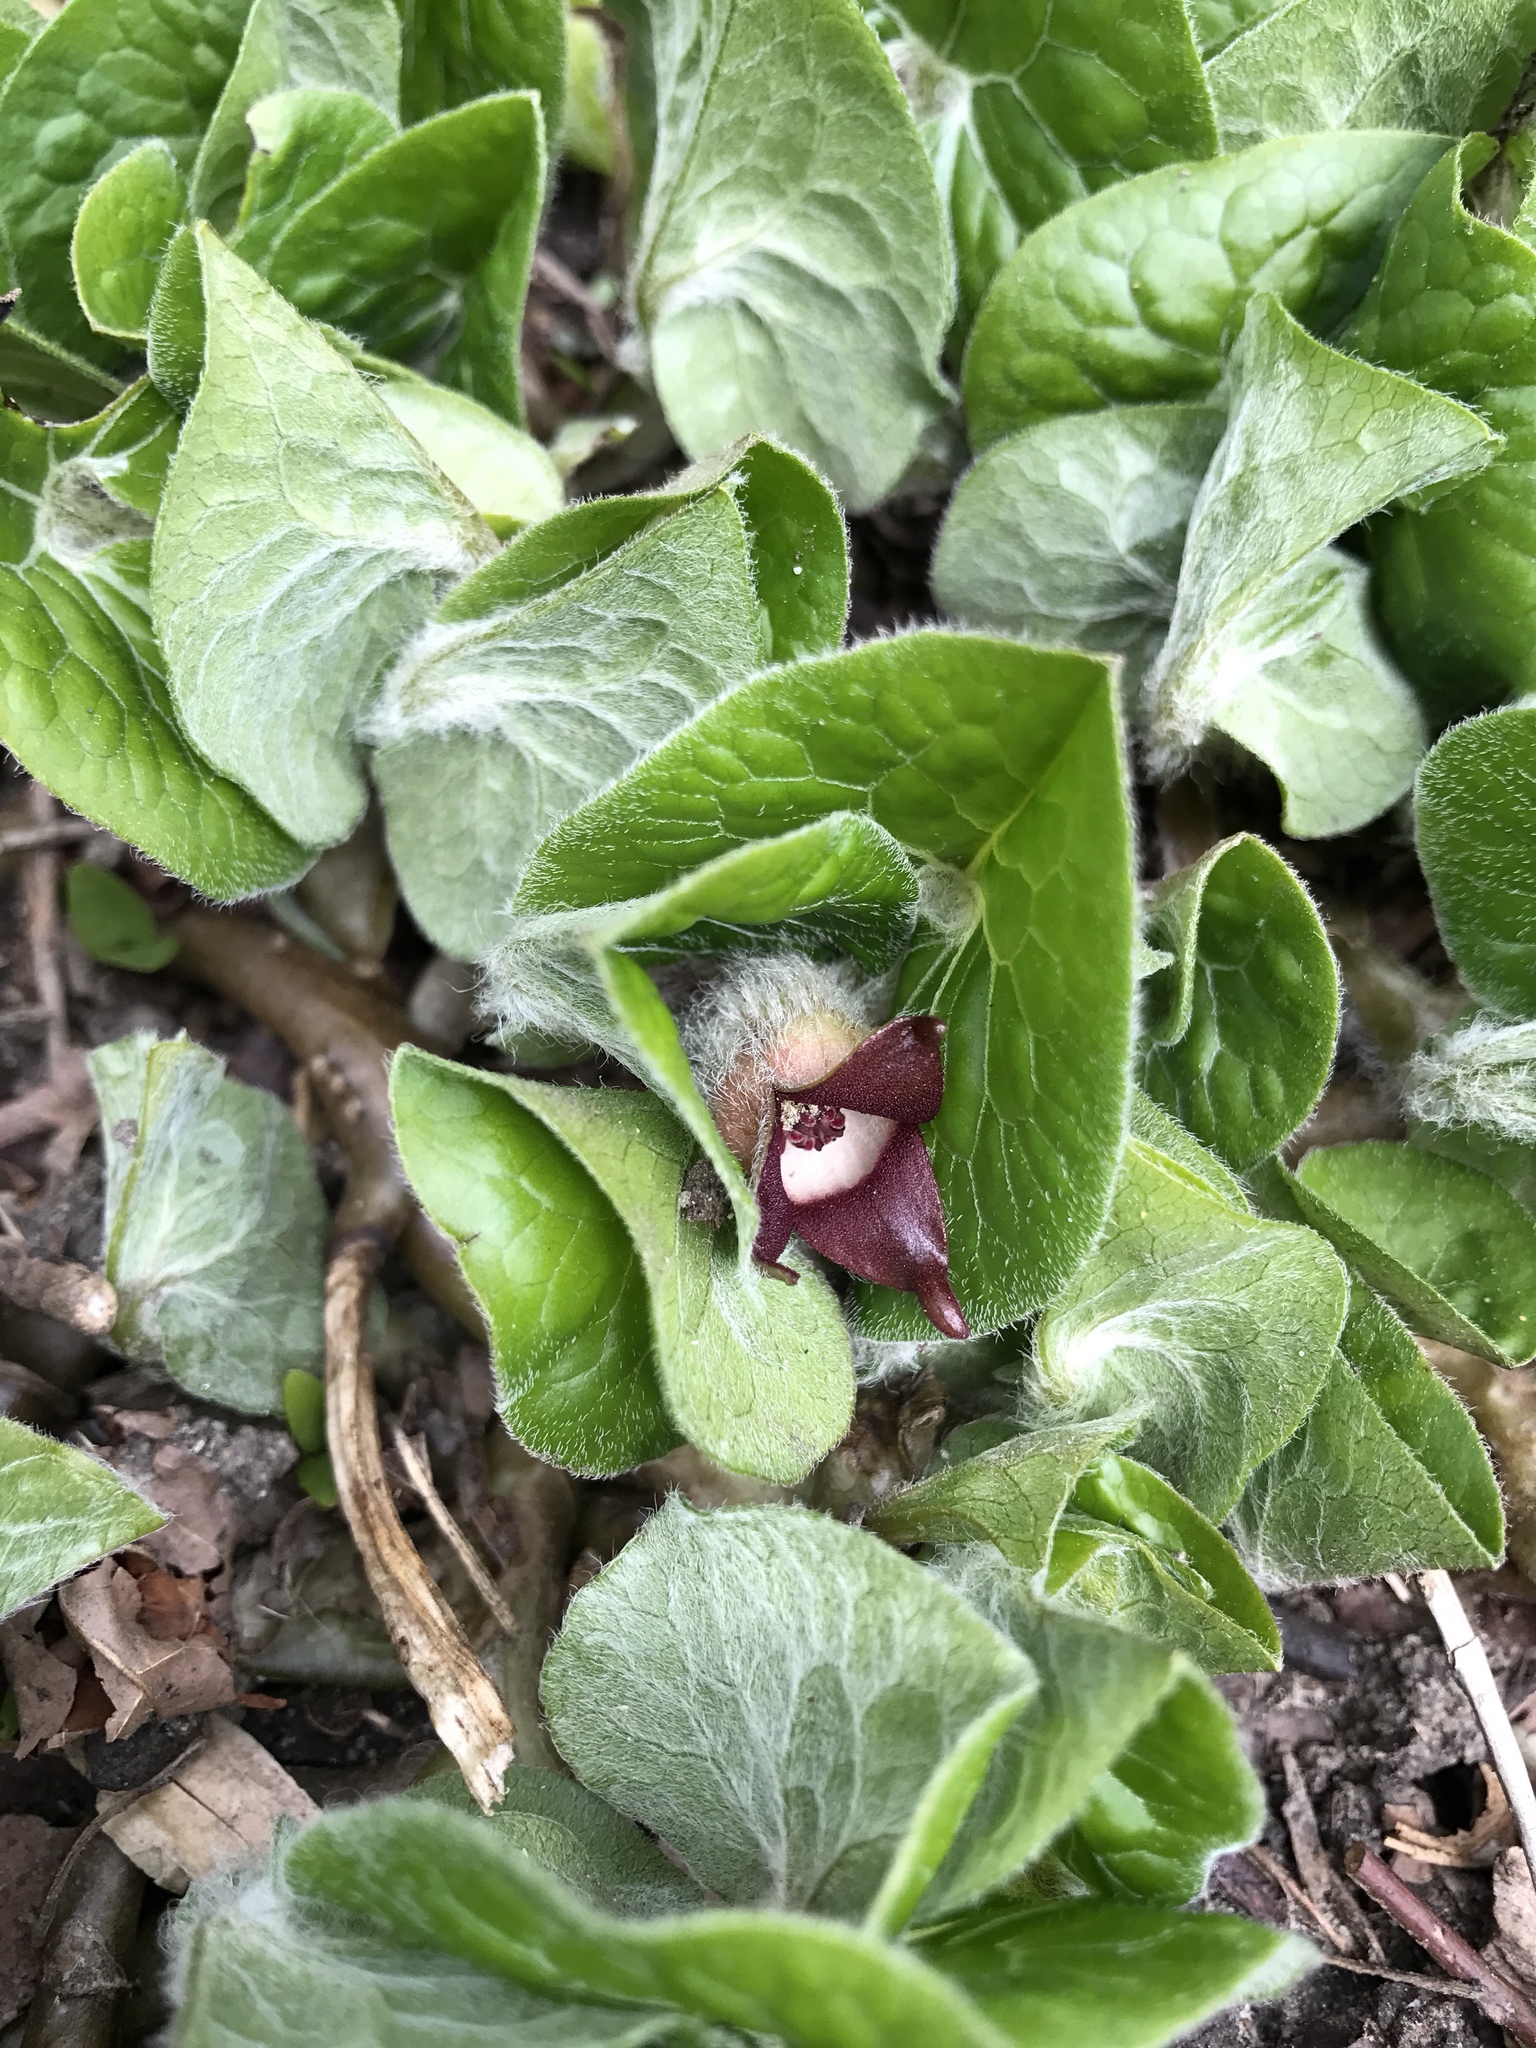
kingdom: Plantae
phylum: Tracheophyta
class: Magnoliopsida
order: Piperales
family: Aristolochiaceae
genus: Asarum
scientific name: Asarum canadense
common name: Wild ginger
